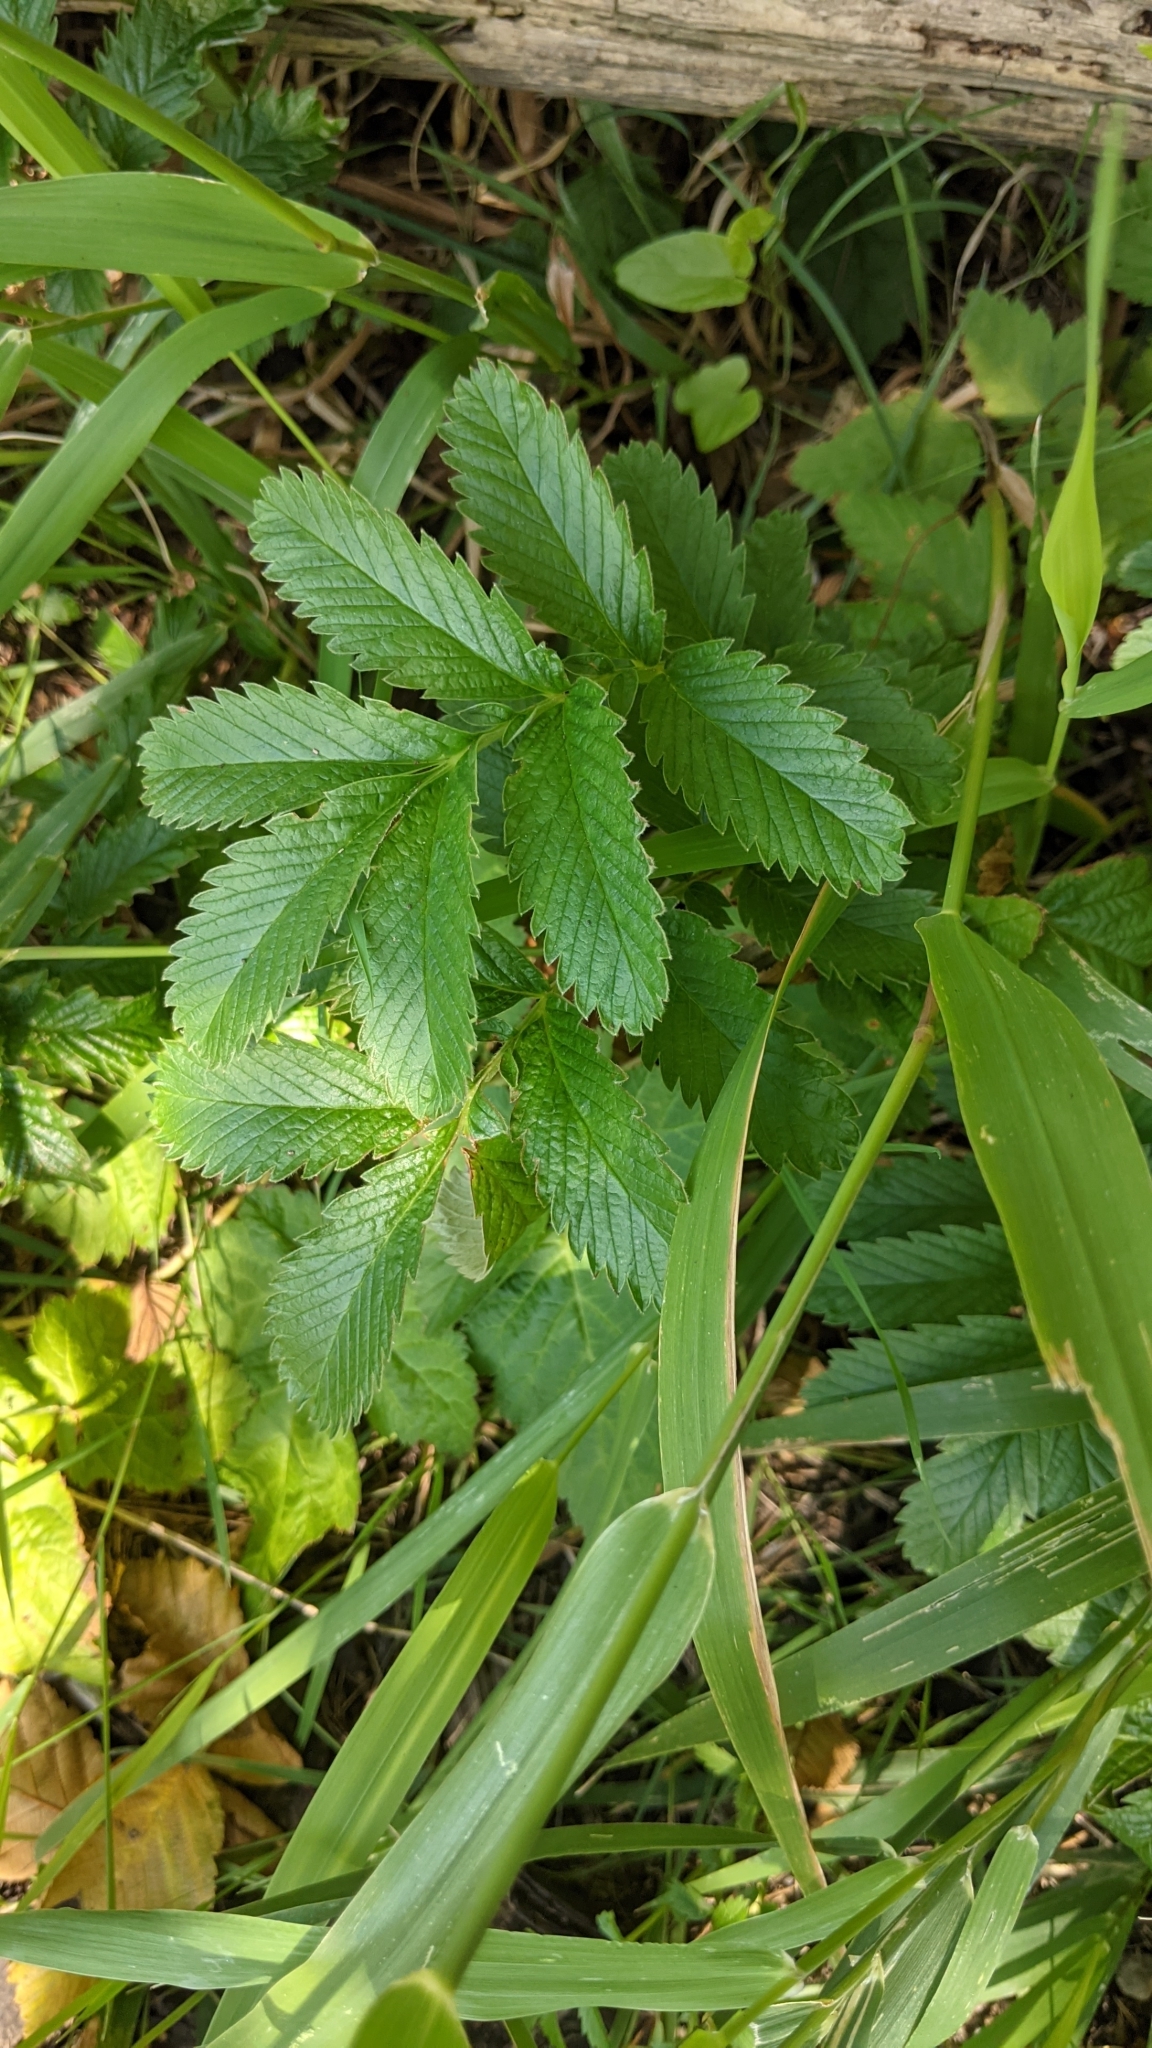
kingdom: Plantae
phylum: Tracheophyta
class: Magnoliopsida
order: Rosales
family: Rosaceae
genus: Argentina
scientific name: Argentina anserina
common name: Common silverweed
